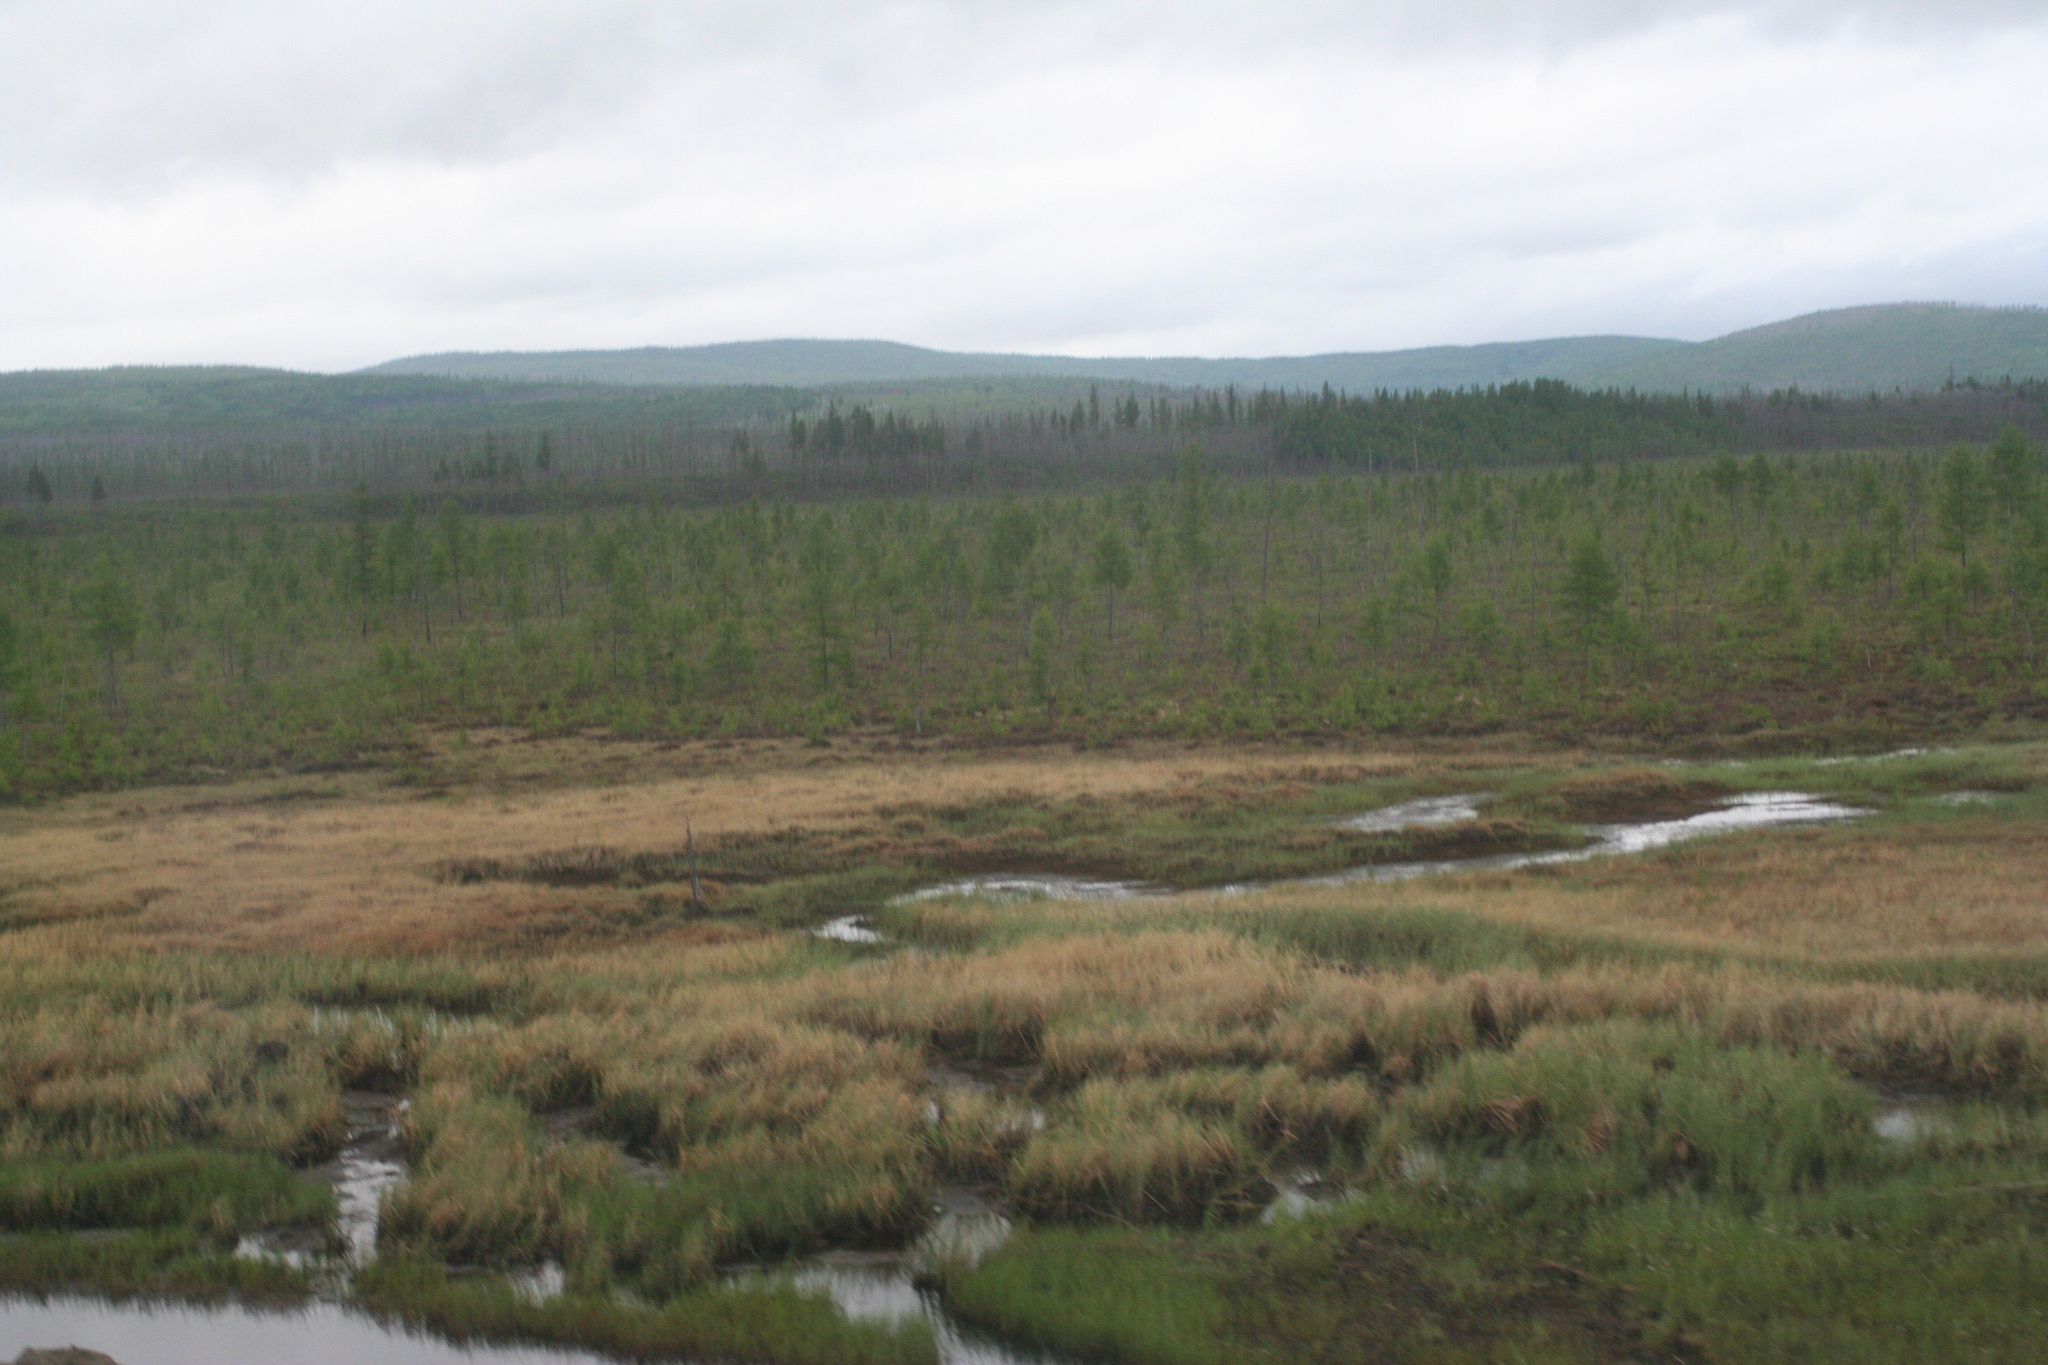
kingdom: Plantae
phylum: Tracheophyta
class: Pinopsida
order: Pinales
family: Pinaceae
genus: Larix
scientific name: Larix gmelinii
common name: Dahurian larch
